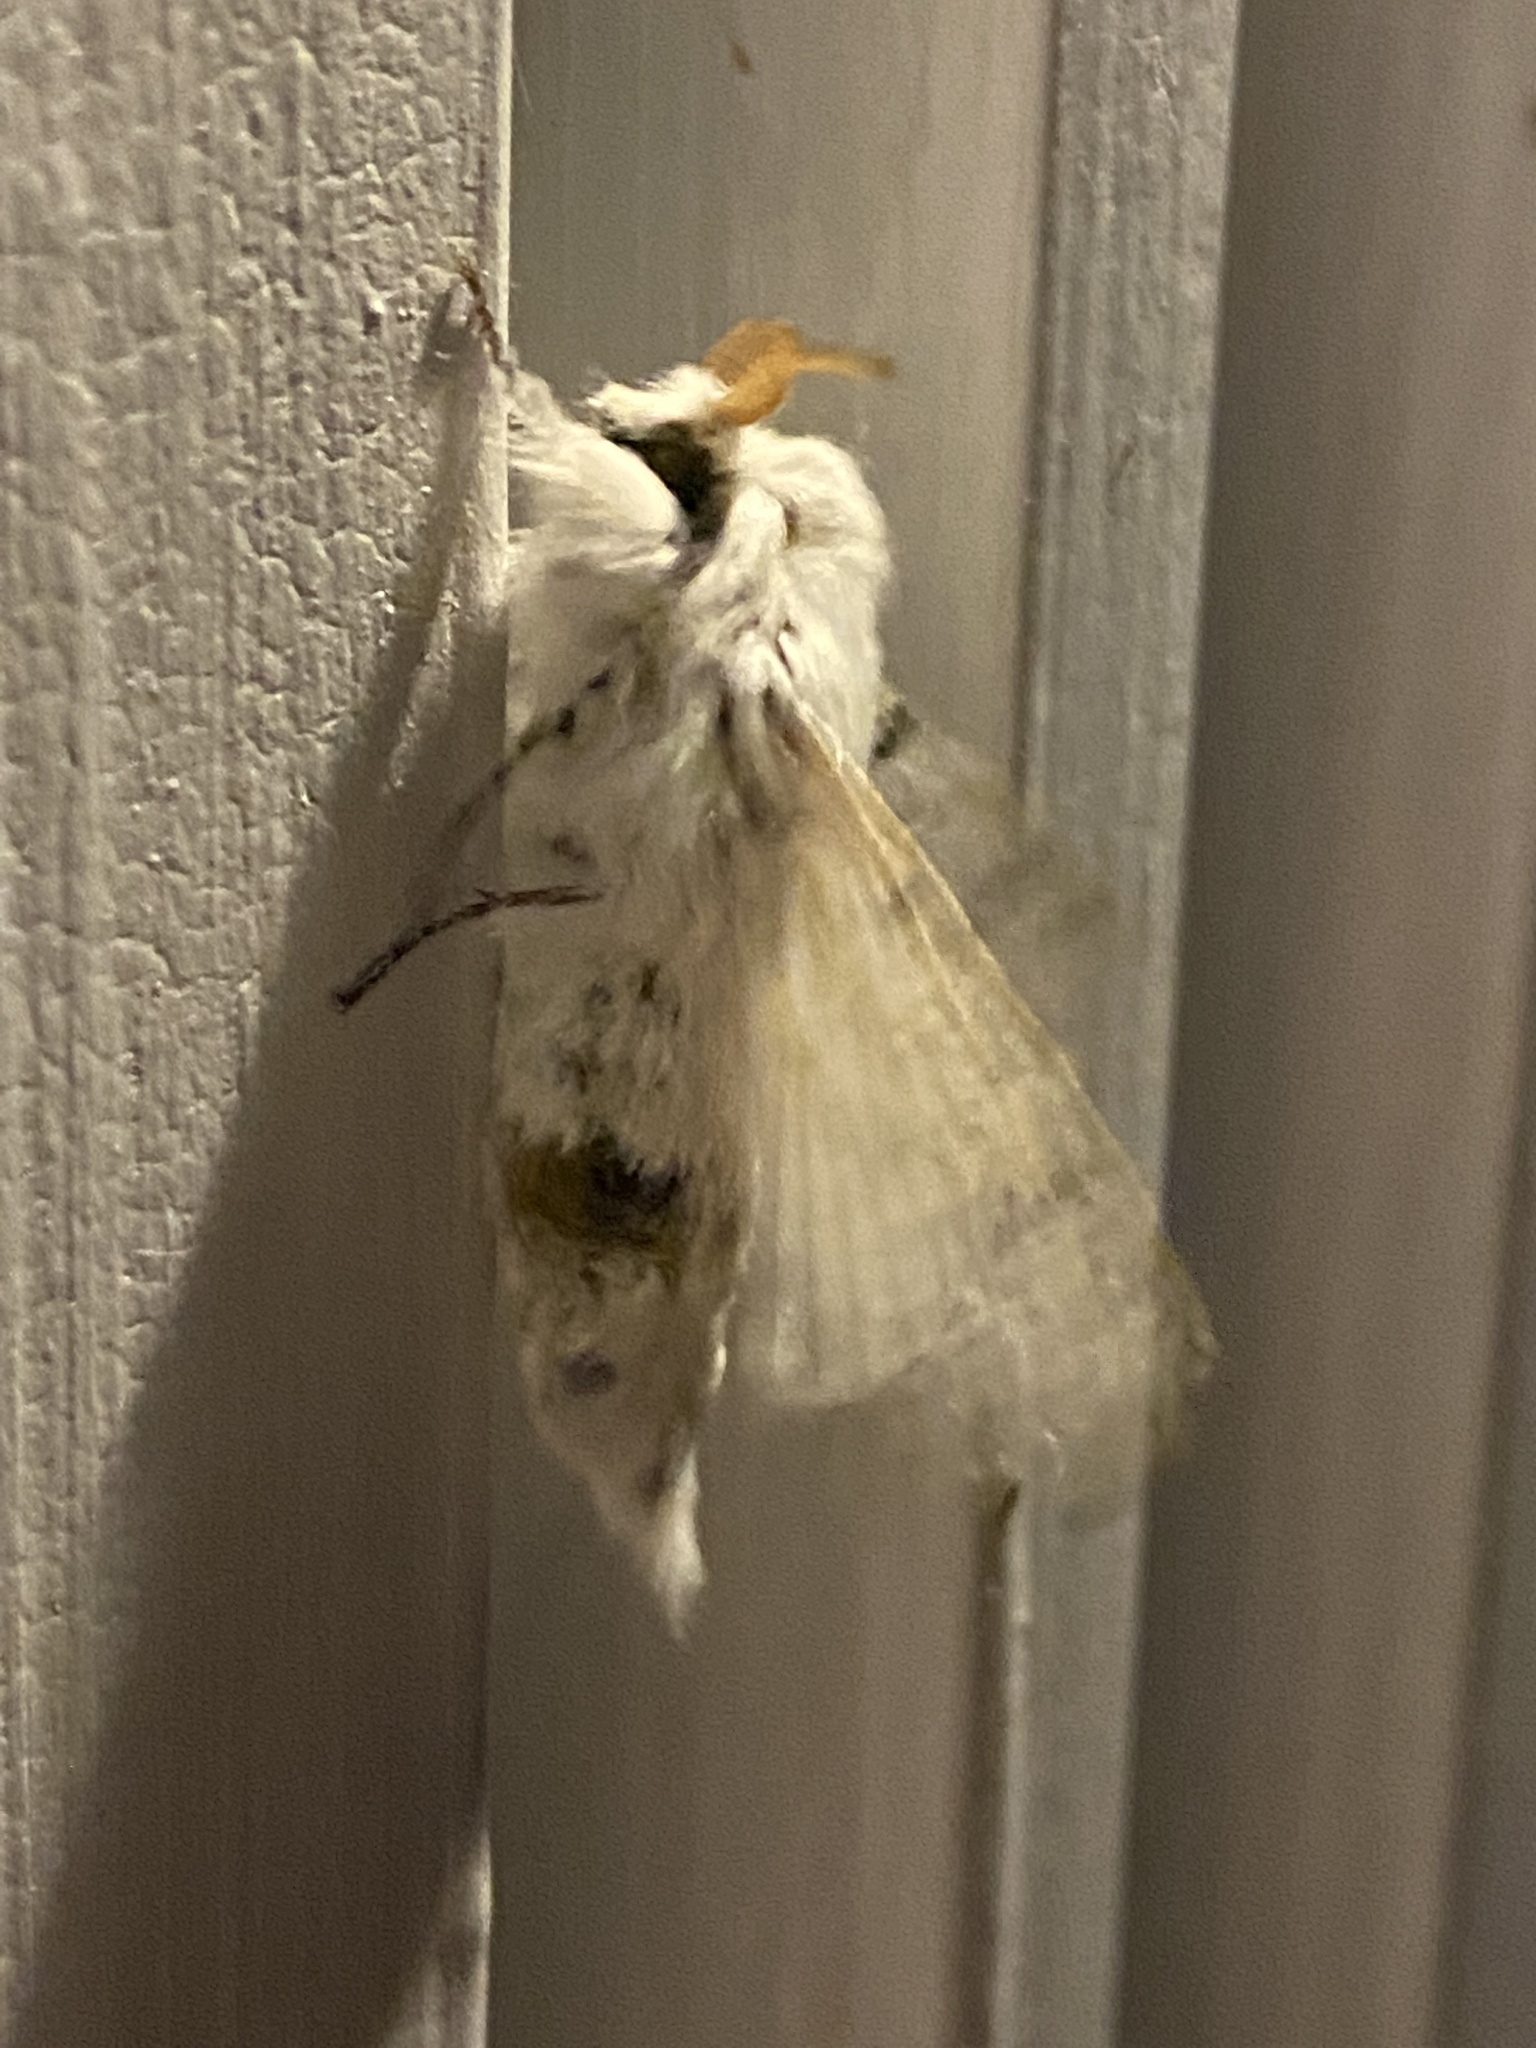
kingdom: Animalia
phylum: Arthropoda
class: Insecta
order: Lepidoptera
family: Lasiocampidae
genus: Artace
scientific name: Artace cribrarius
